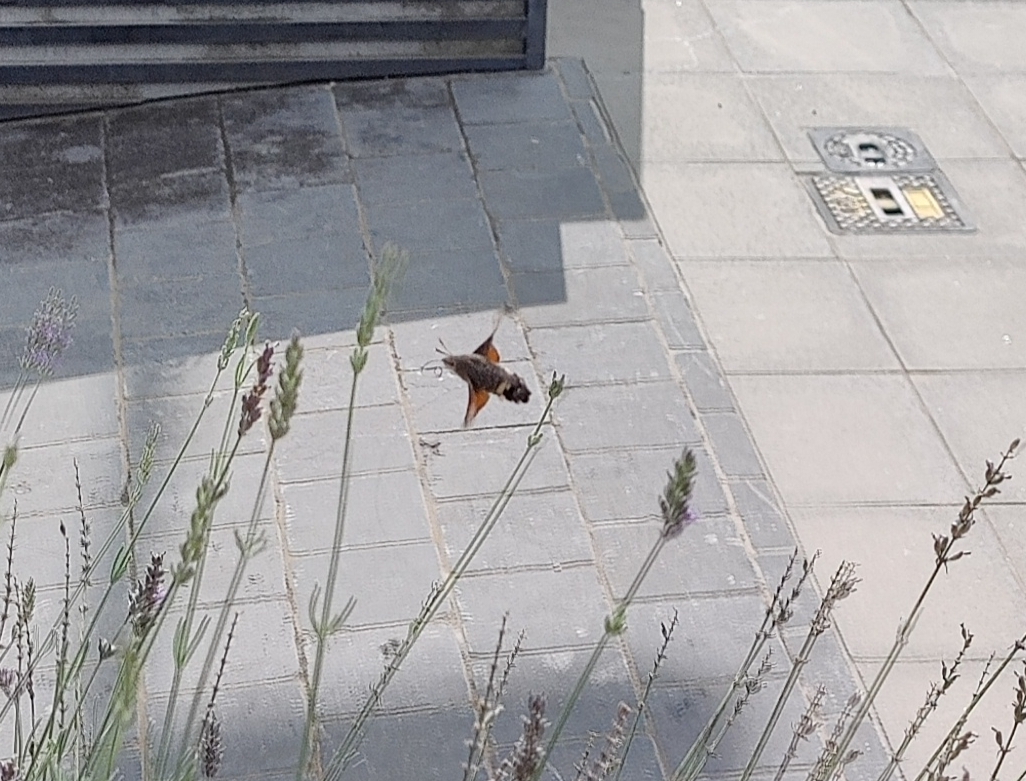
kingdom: Animalia
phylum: Arthropoda
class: Insecta
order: Lepidoptera
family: Sphingidae
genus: Macroglossum
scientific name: Macroglossum stellatarum
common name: Humming-bird hawk-moth
